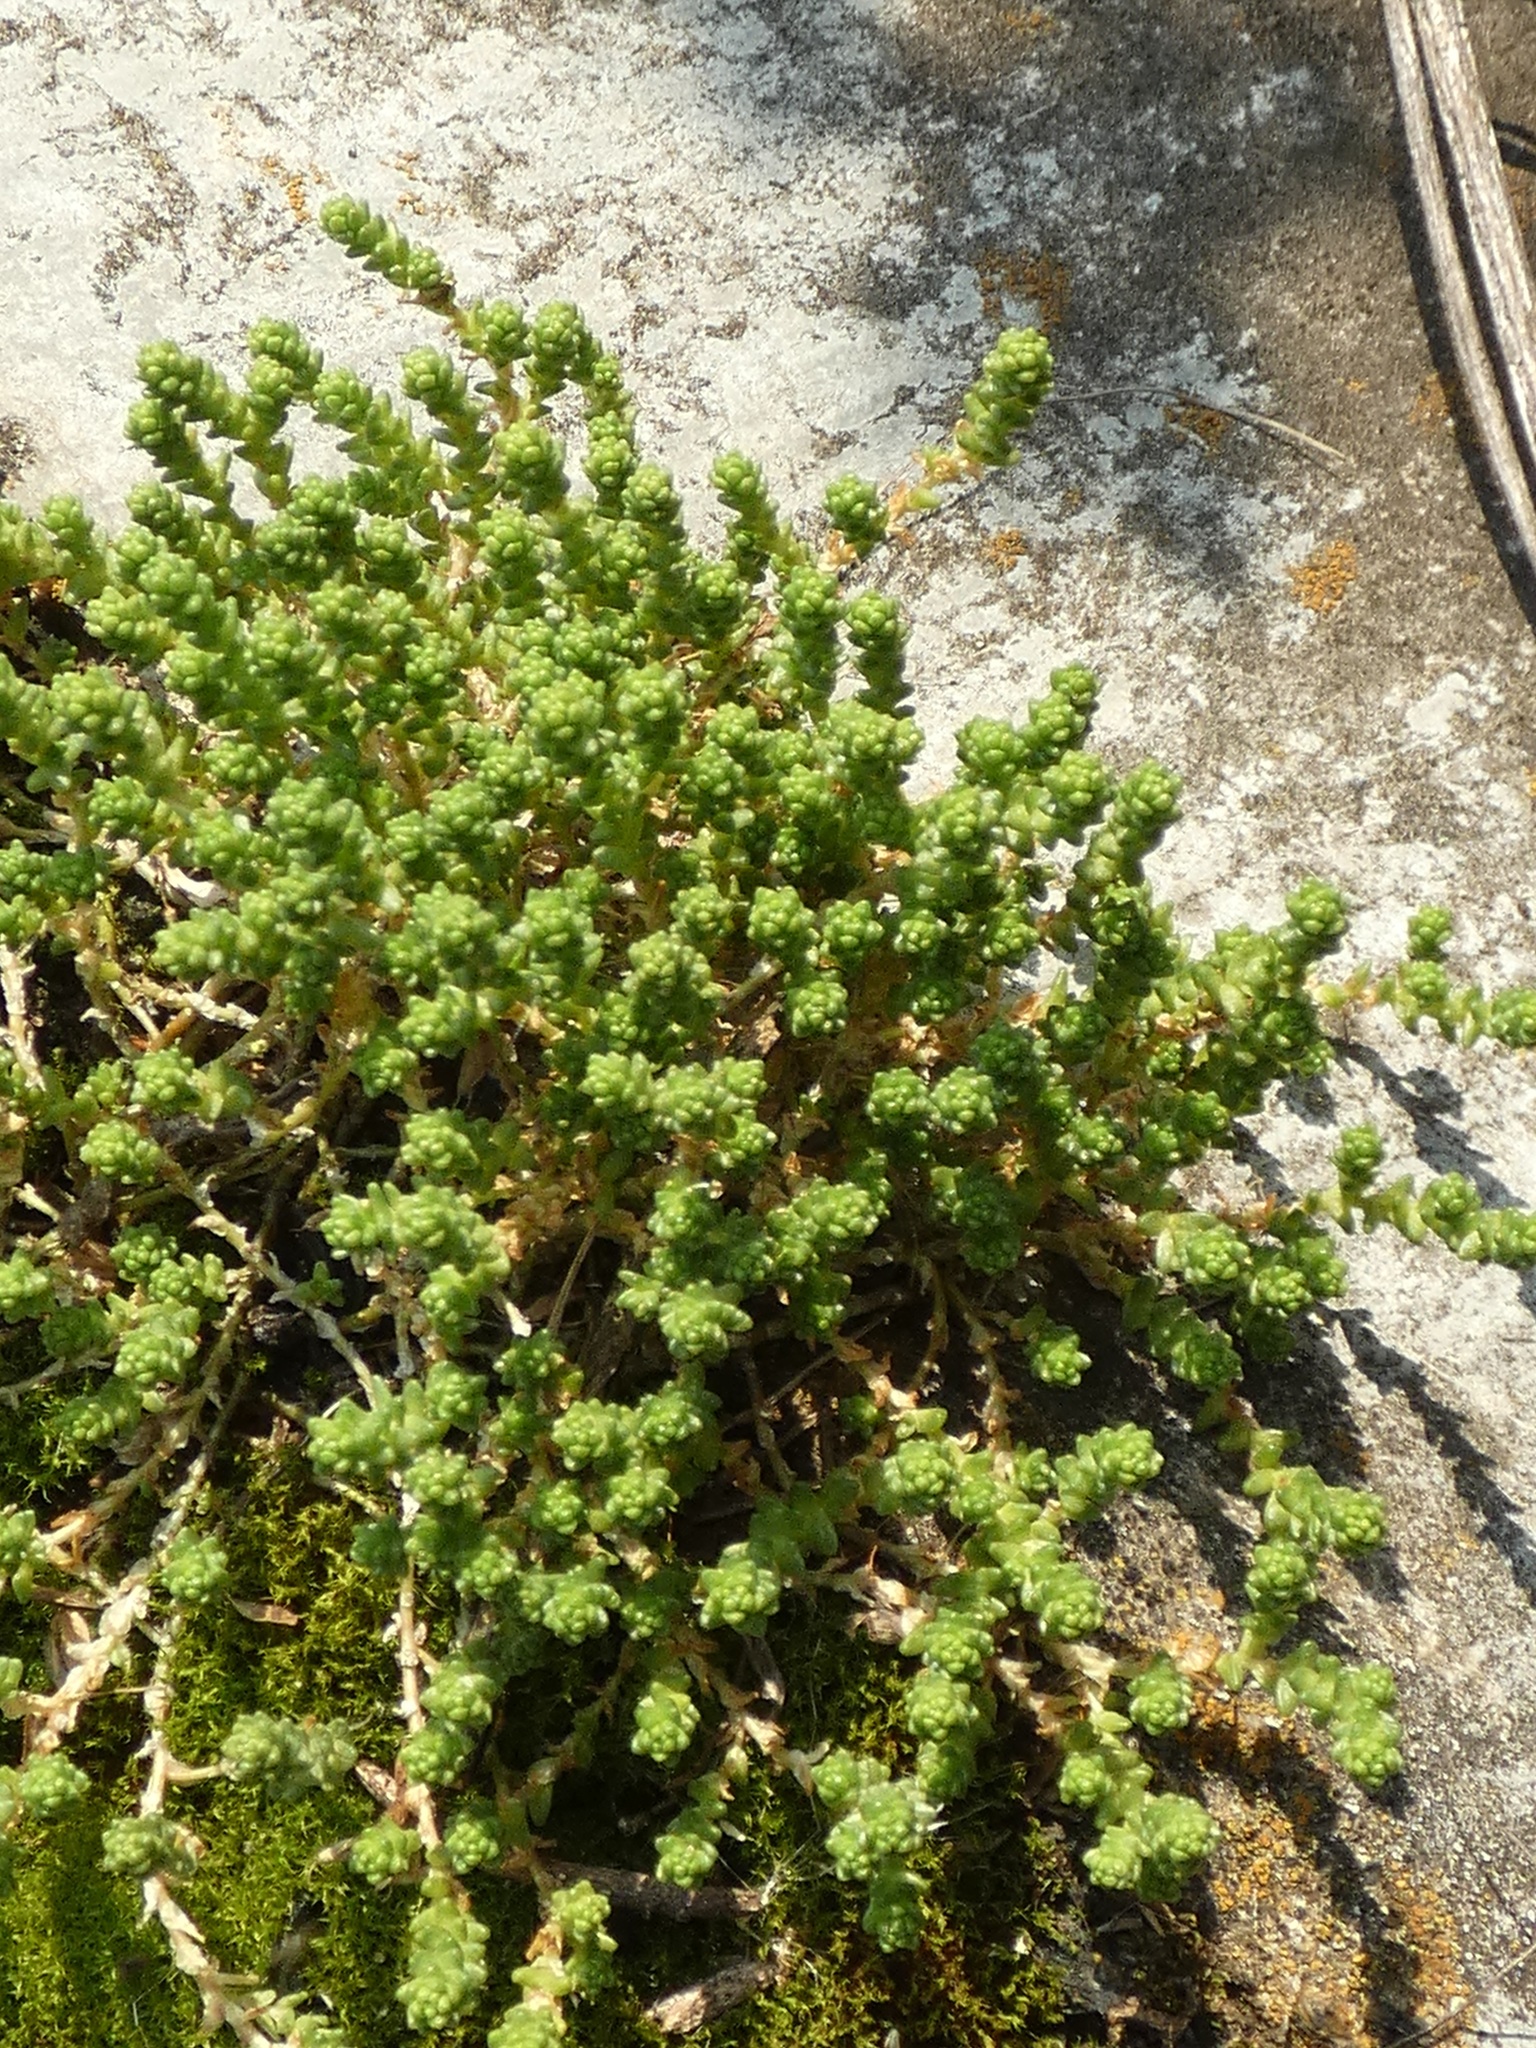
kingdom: Plantae
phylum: Tracheophyta
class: Magnoliopsida
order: Saxifragales
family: Crassulaceae
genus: Sedum
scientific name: Sedum acre
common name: Biting stonecrop
